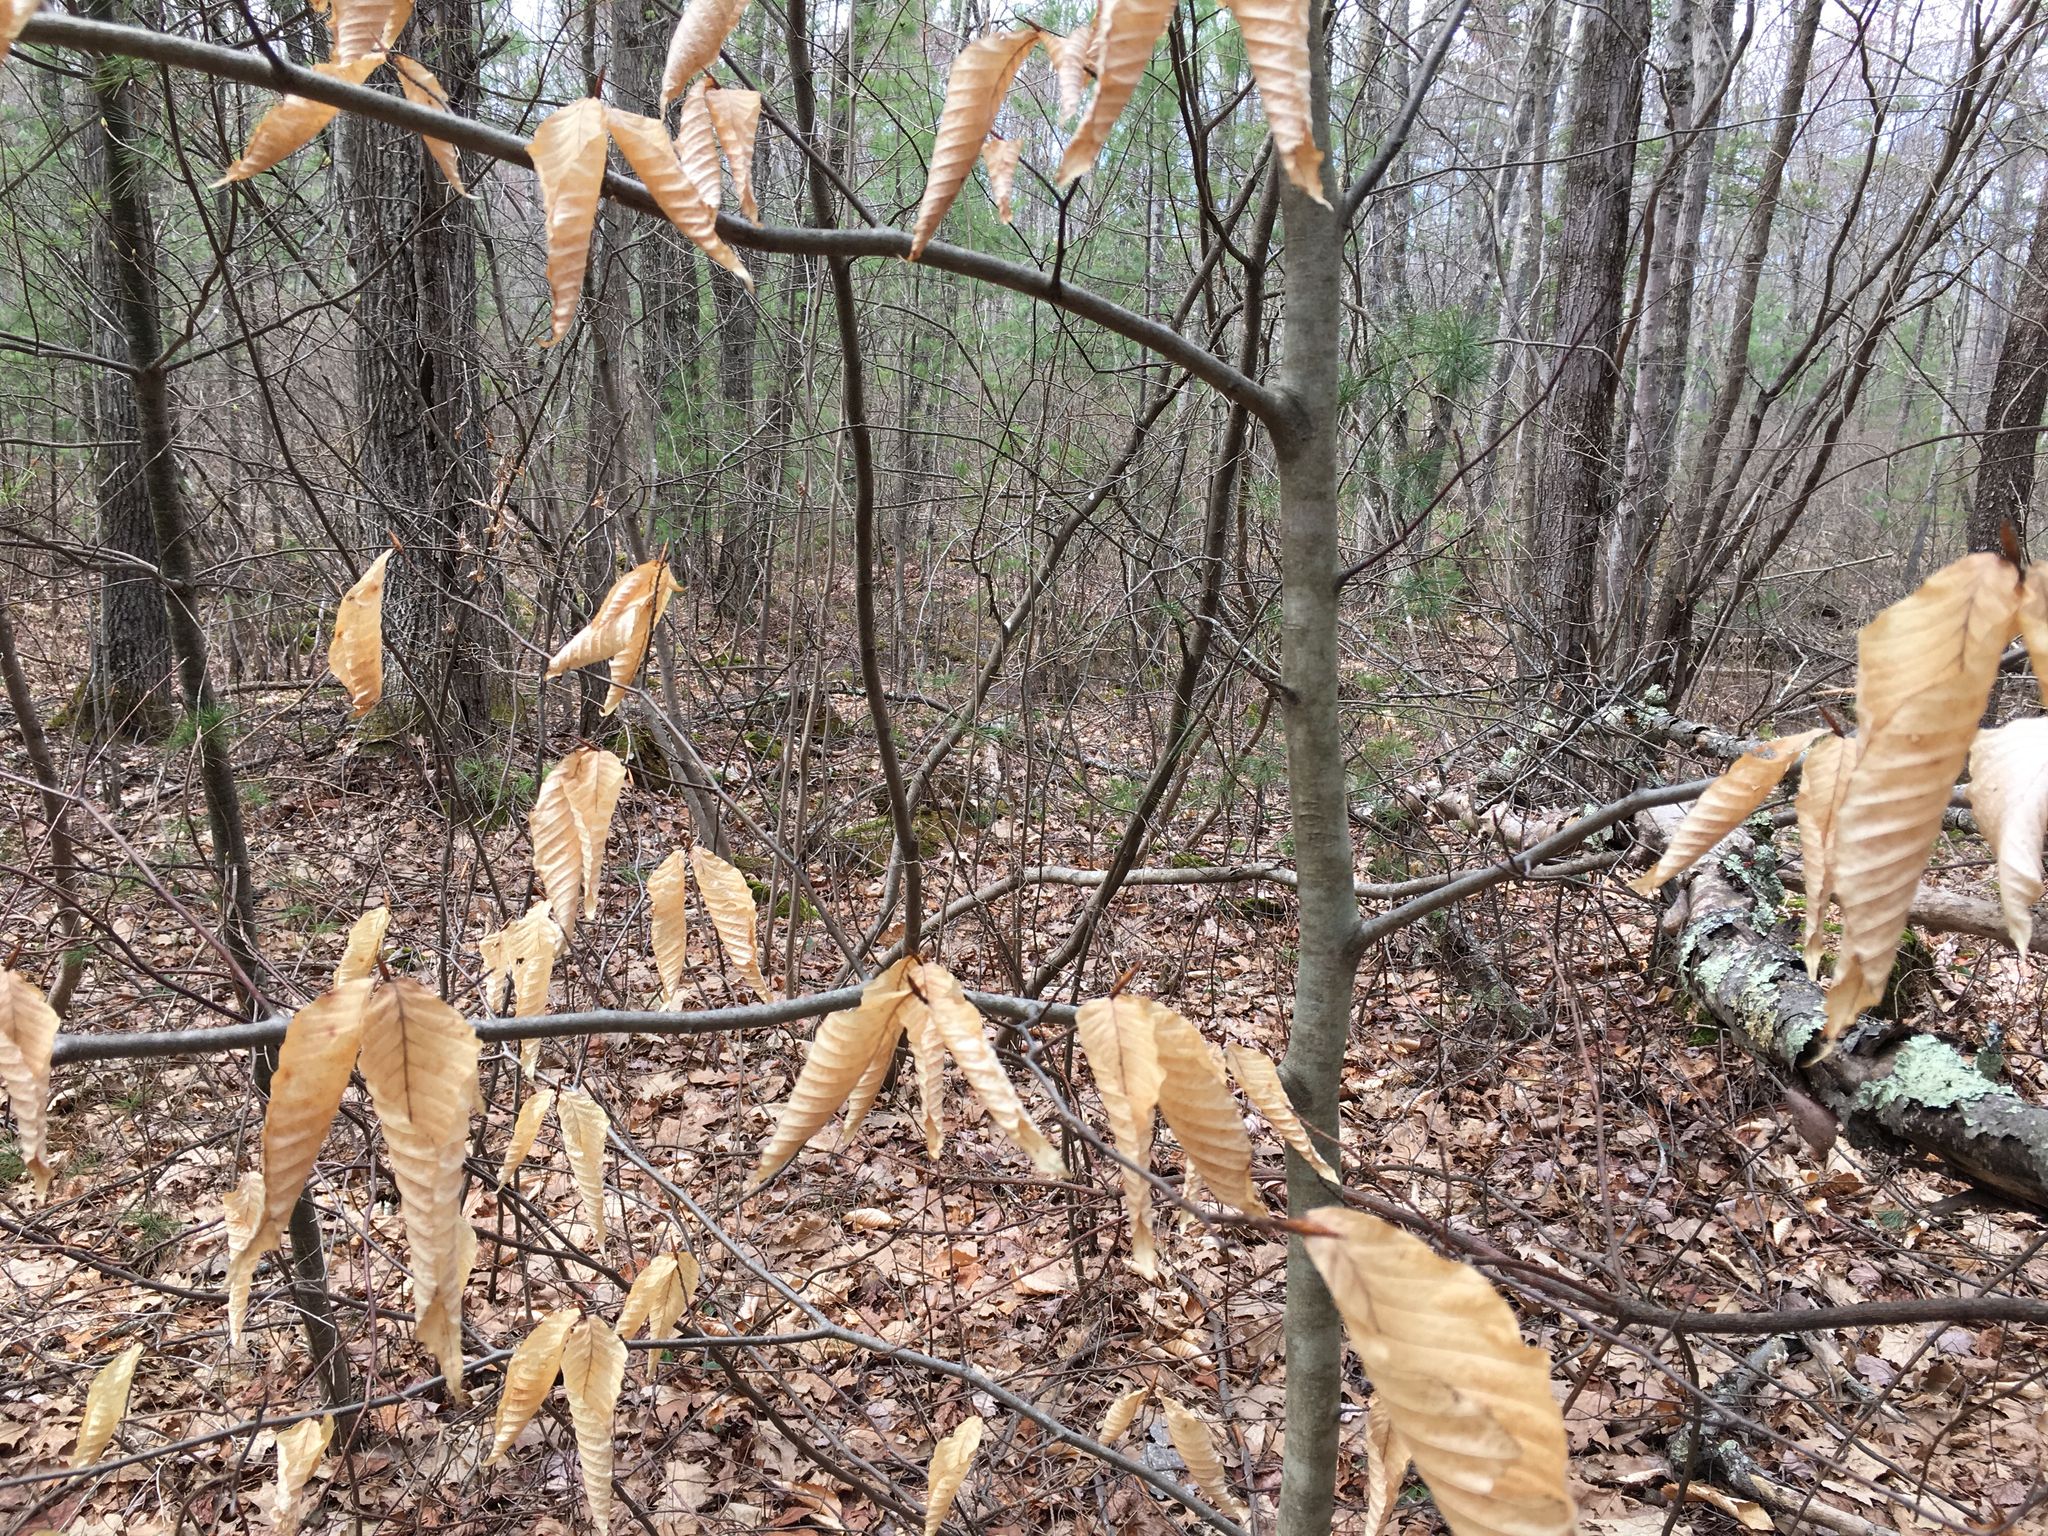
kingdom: Plantae
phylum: Tracheophyta
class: Magnoliopsida
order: Fagales
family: Fagaceae
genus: Fagus
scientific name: Fagus grandifolia
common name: American beech
